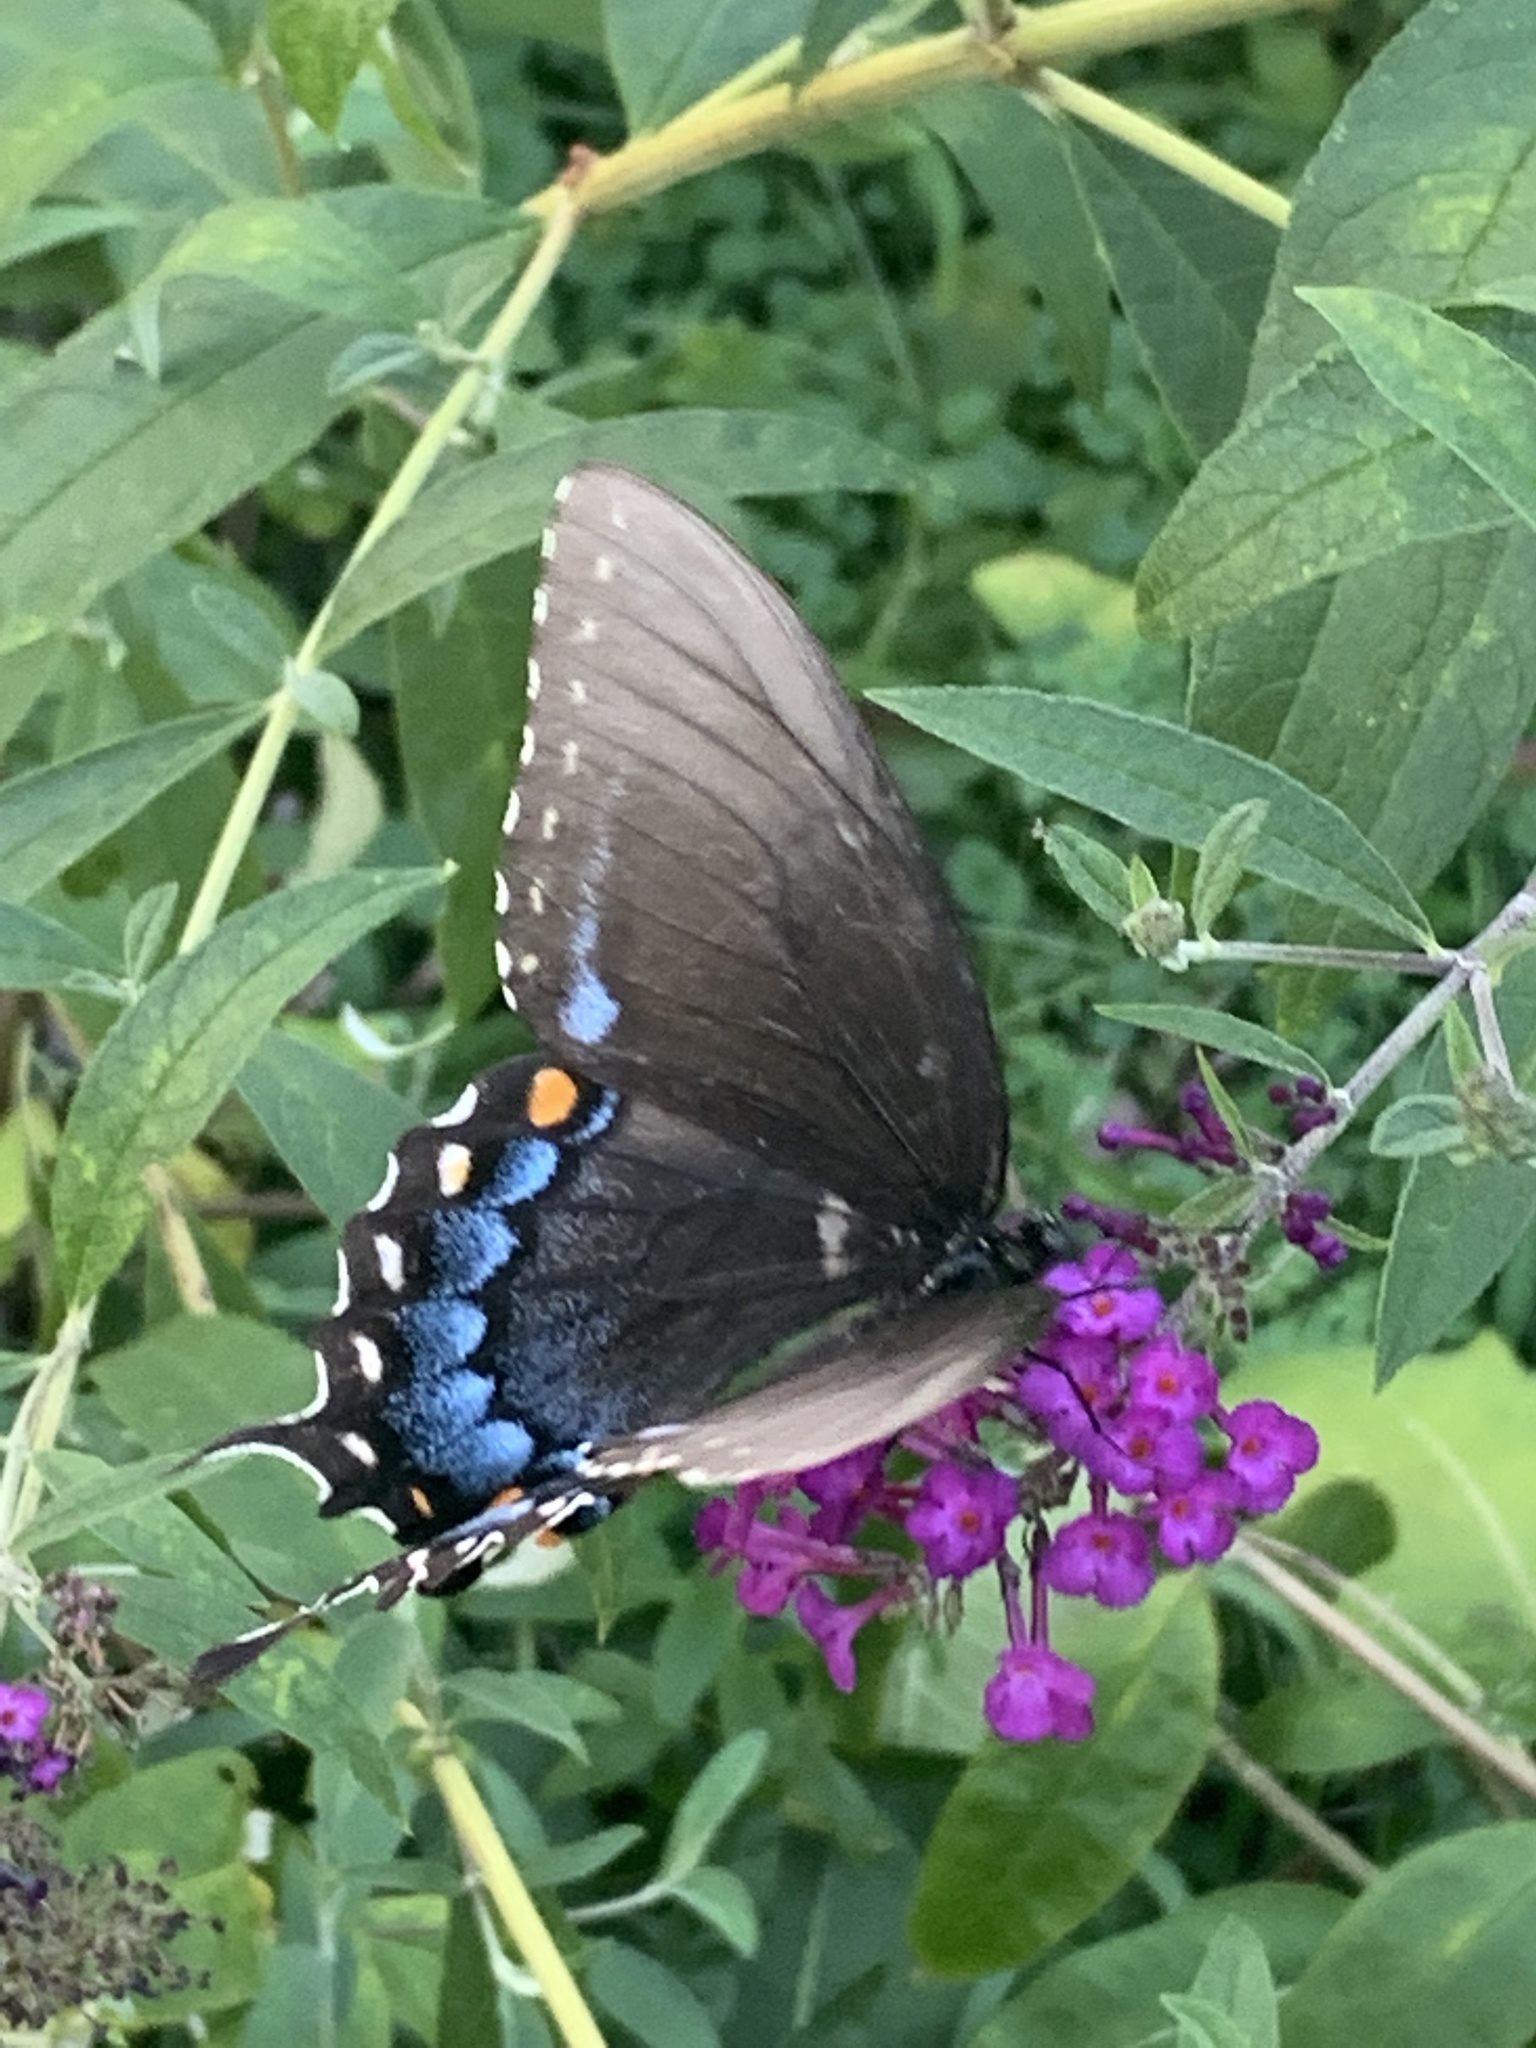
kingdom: Animalia
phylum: Arthropoda
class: Insecta
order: Lepidoptera
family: Papilionidae
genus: Papilio
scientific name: Papilio glaucus
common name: Tiger swallowtail
